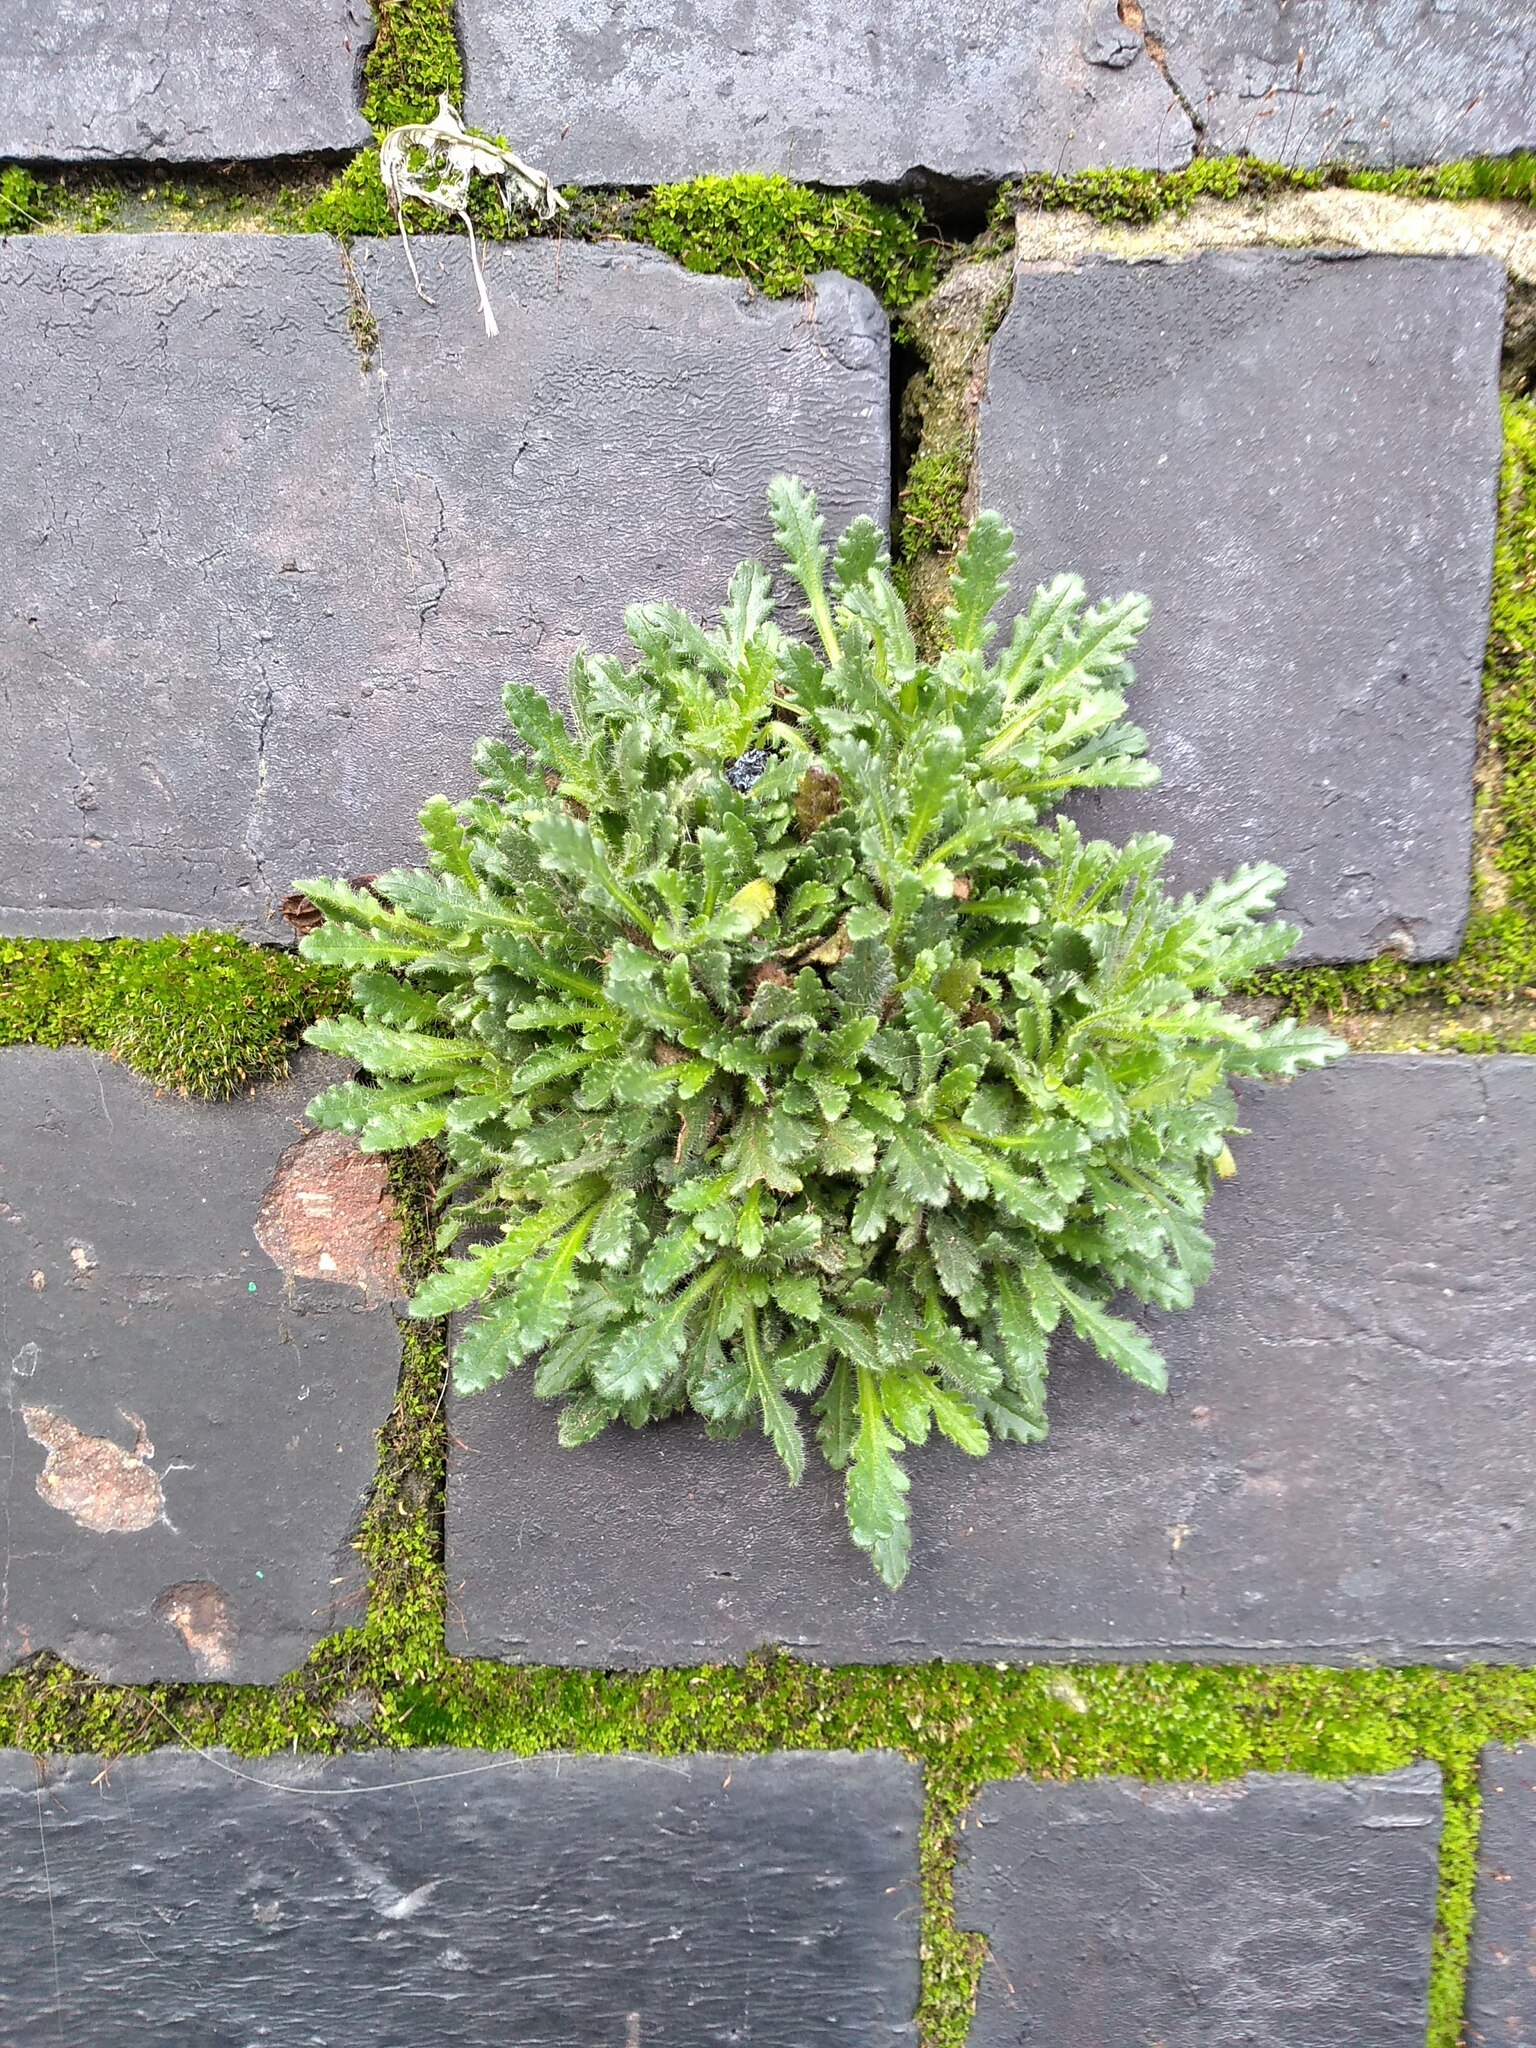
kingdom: Plantae
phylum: Tracheophyta
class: Magnoliopsida
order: Lamiales
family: Plantaginaceae
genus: Erinus
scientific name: Erinus alpinus
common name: Fairy foxglove
